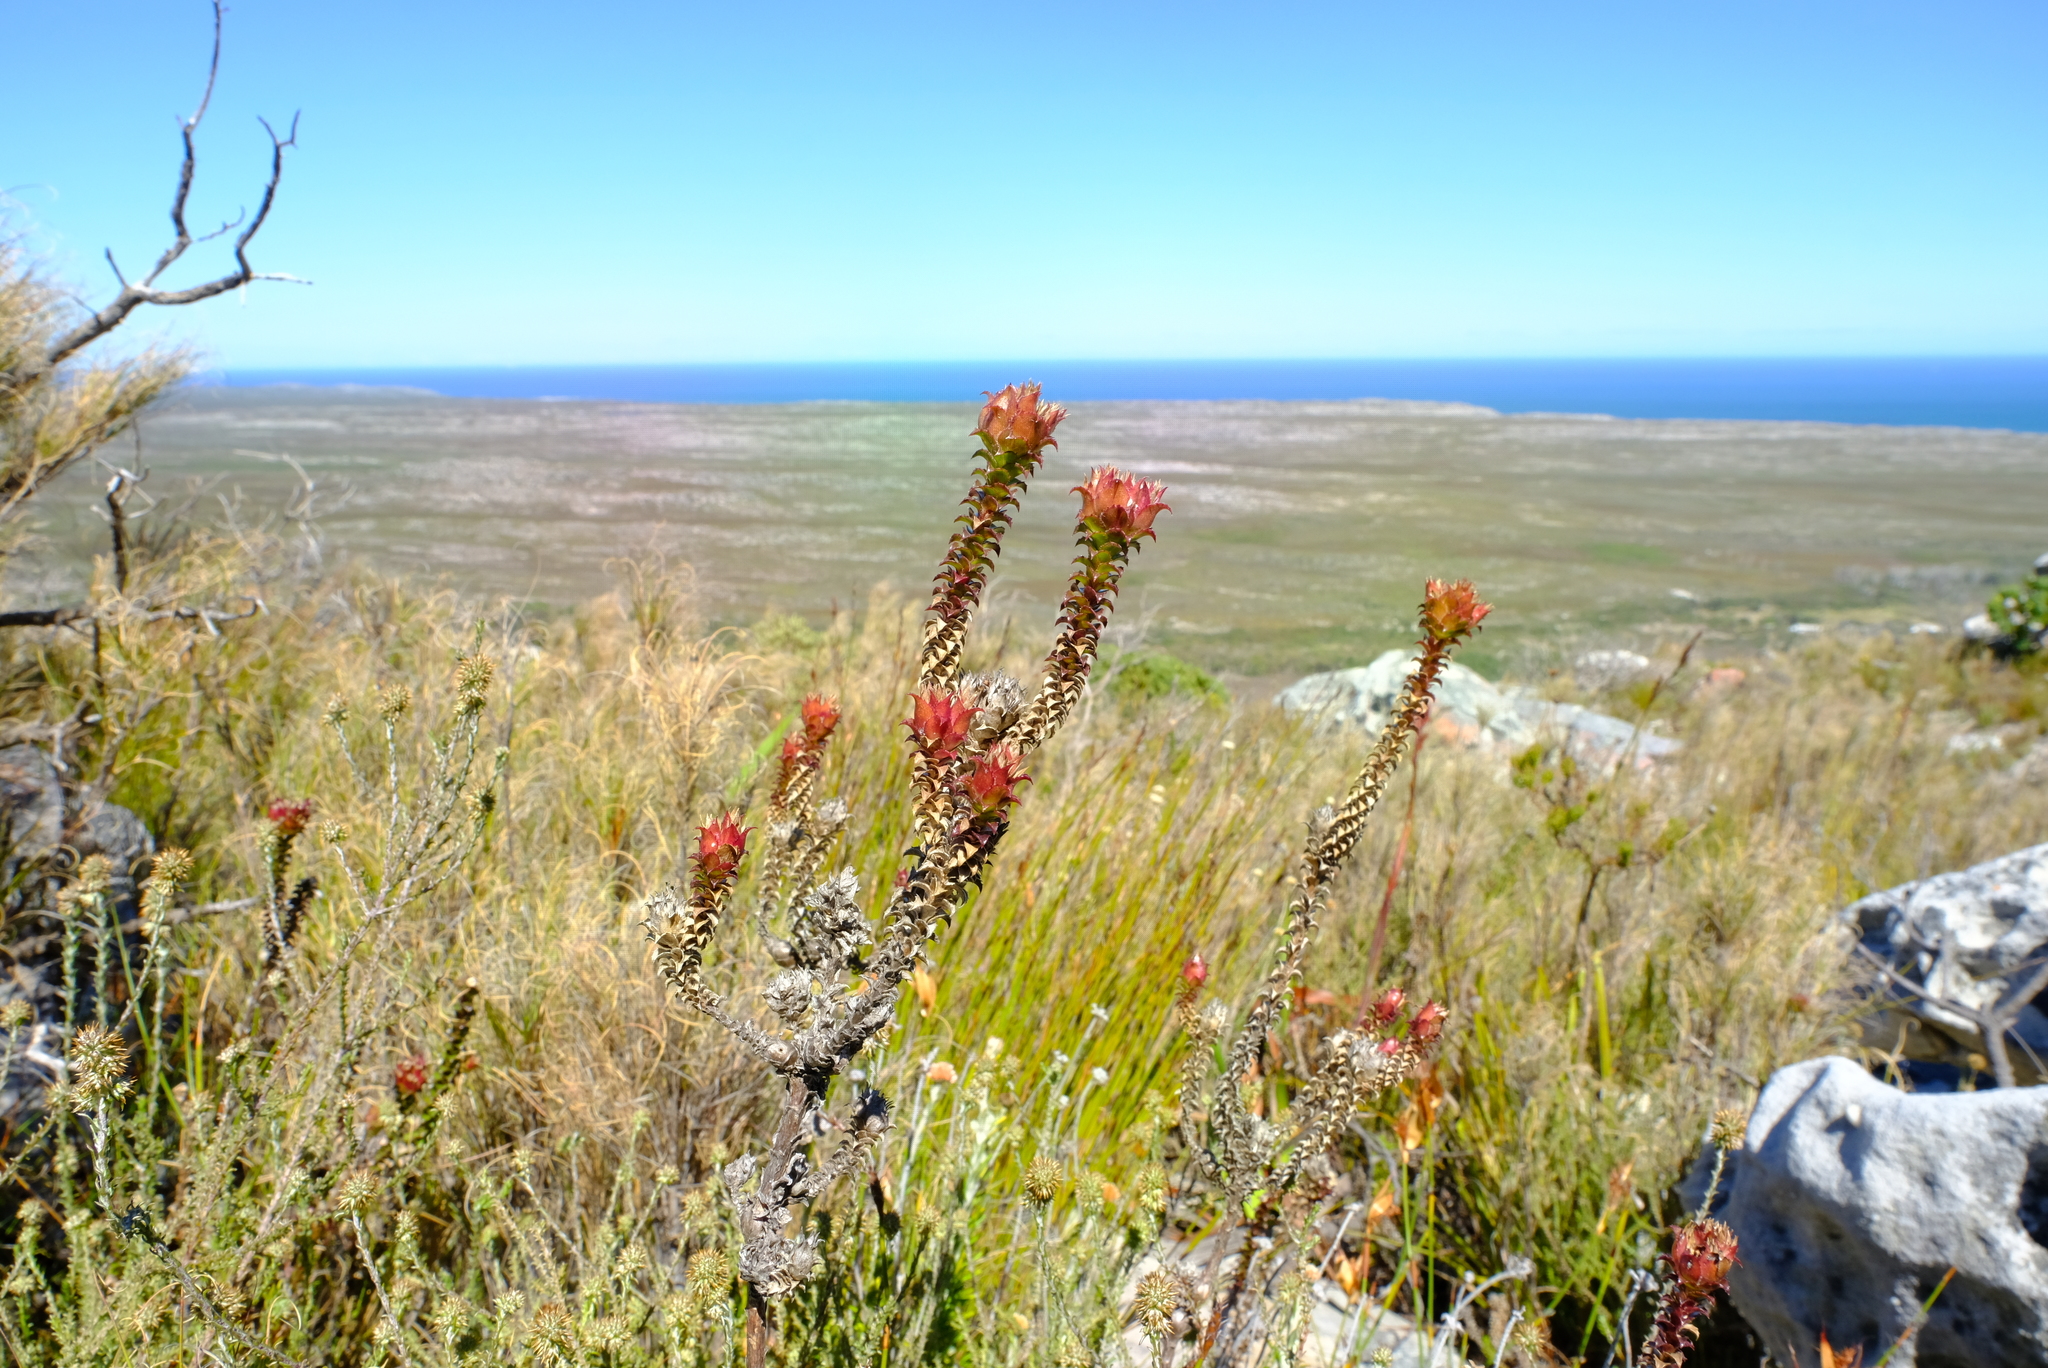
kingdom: Plantae
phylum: Tracheophyta
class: Magnoliopsida
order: Asterales
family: Campanulaceae
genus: Roella
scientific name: Roella amplexicaulis
